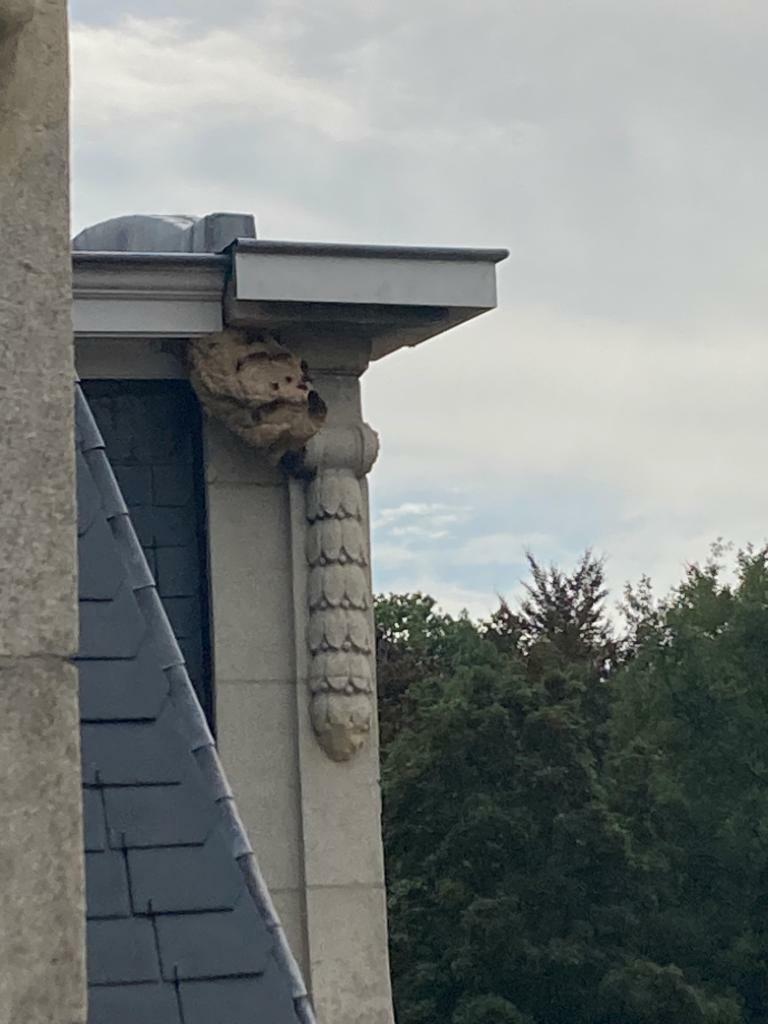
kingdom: Animalia
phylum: Arthropoda
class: Insecta
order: Hymenoptera
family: Vespidae
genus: Vespa
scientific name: Vespa velutina
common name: Asian hornet
